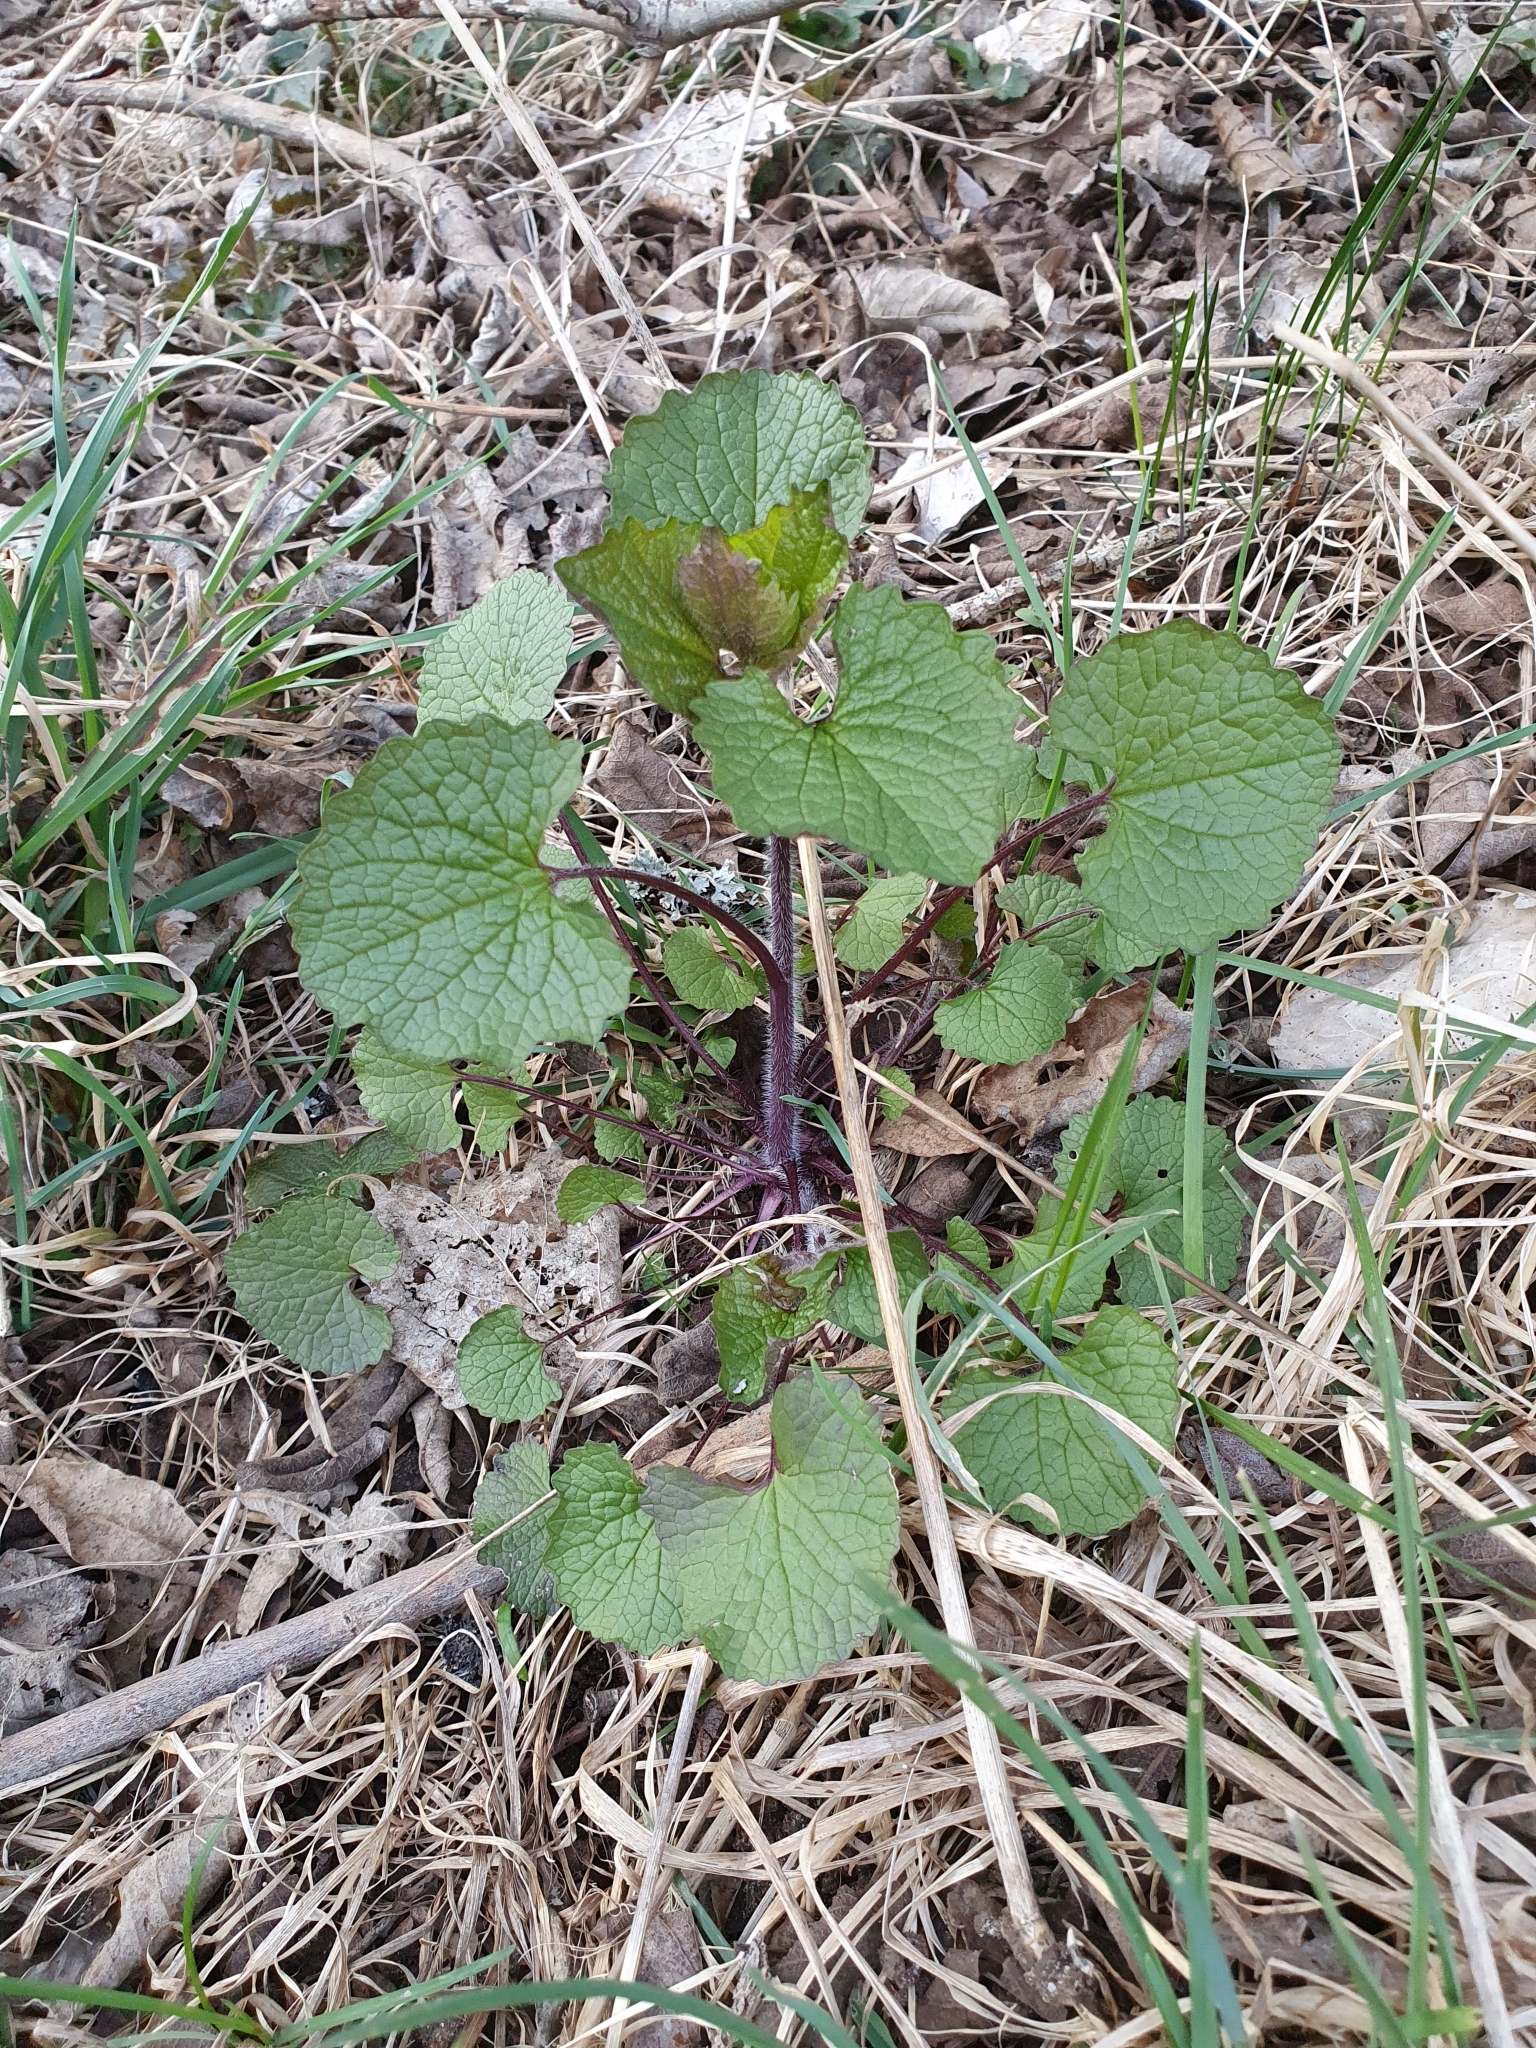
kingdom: Plantae
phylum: Tracheophyta
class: Magnoliopsida
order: Brassicales
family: Brassicaceae
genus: Alliaria
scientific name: Alliaria petiolata
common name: Garlic mustard
